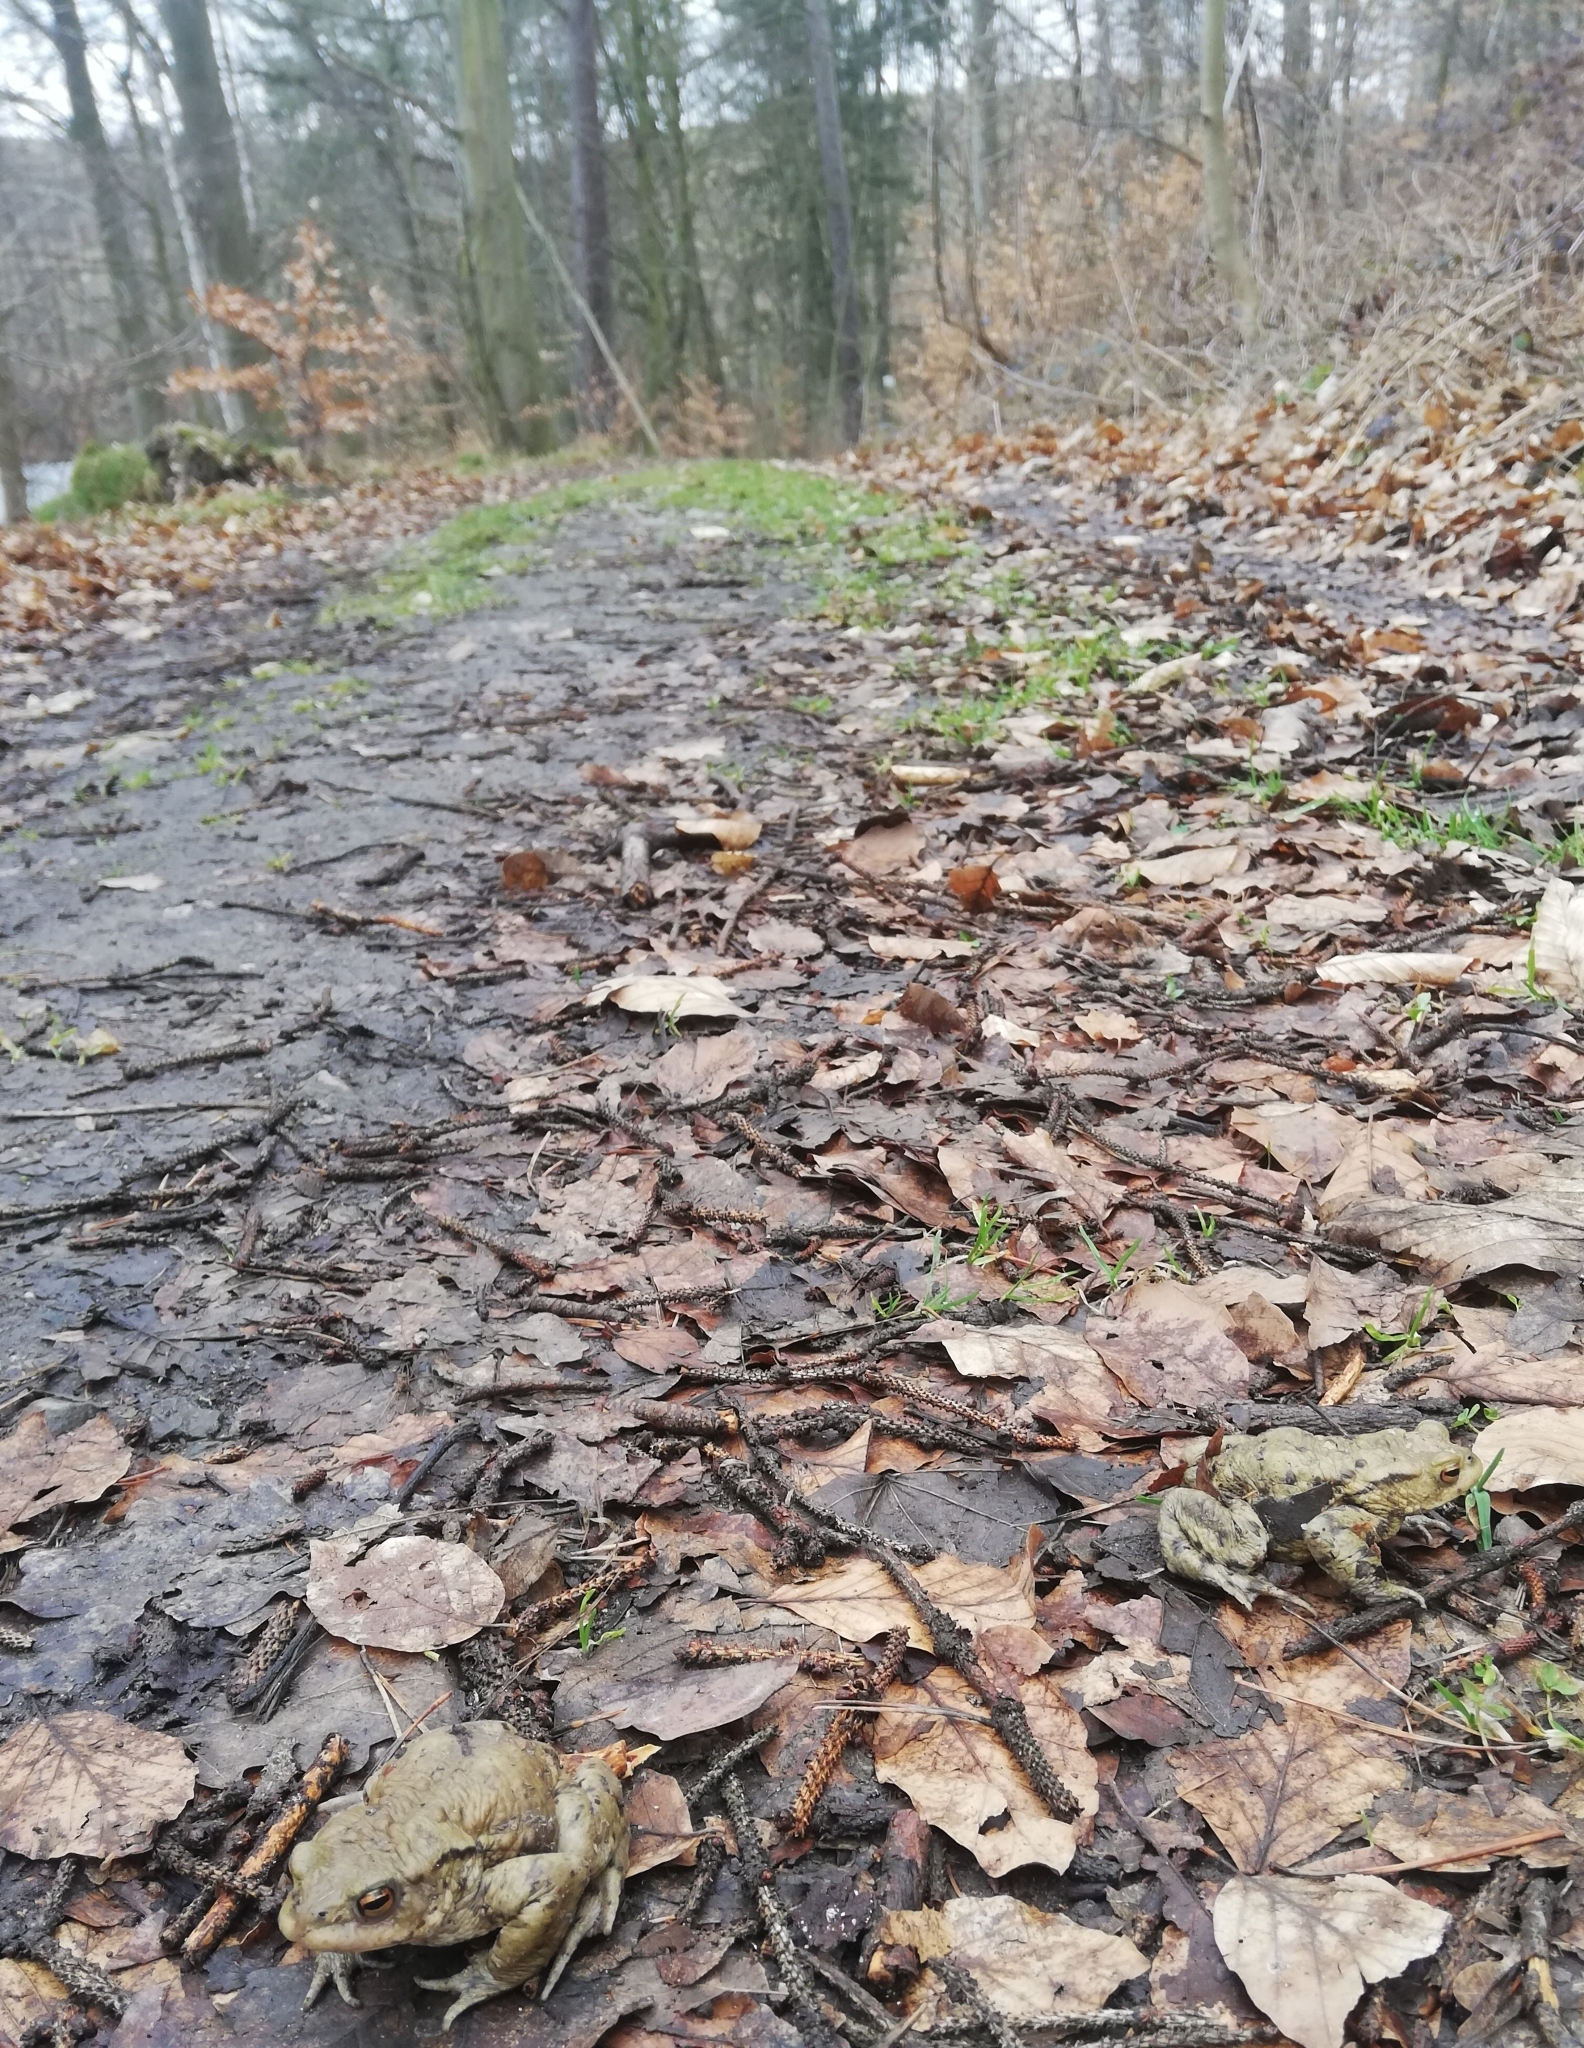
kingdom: Animalia
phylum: Chordata
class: Amphibia
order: Anura
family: Bufonidae
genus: Bufo
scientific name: Bufo bufo
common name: Common toad
